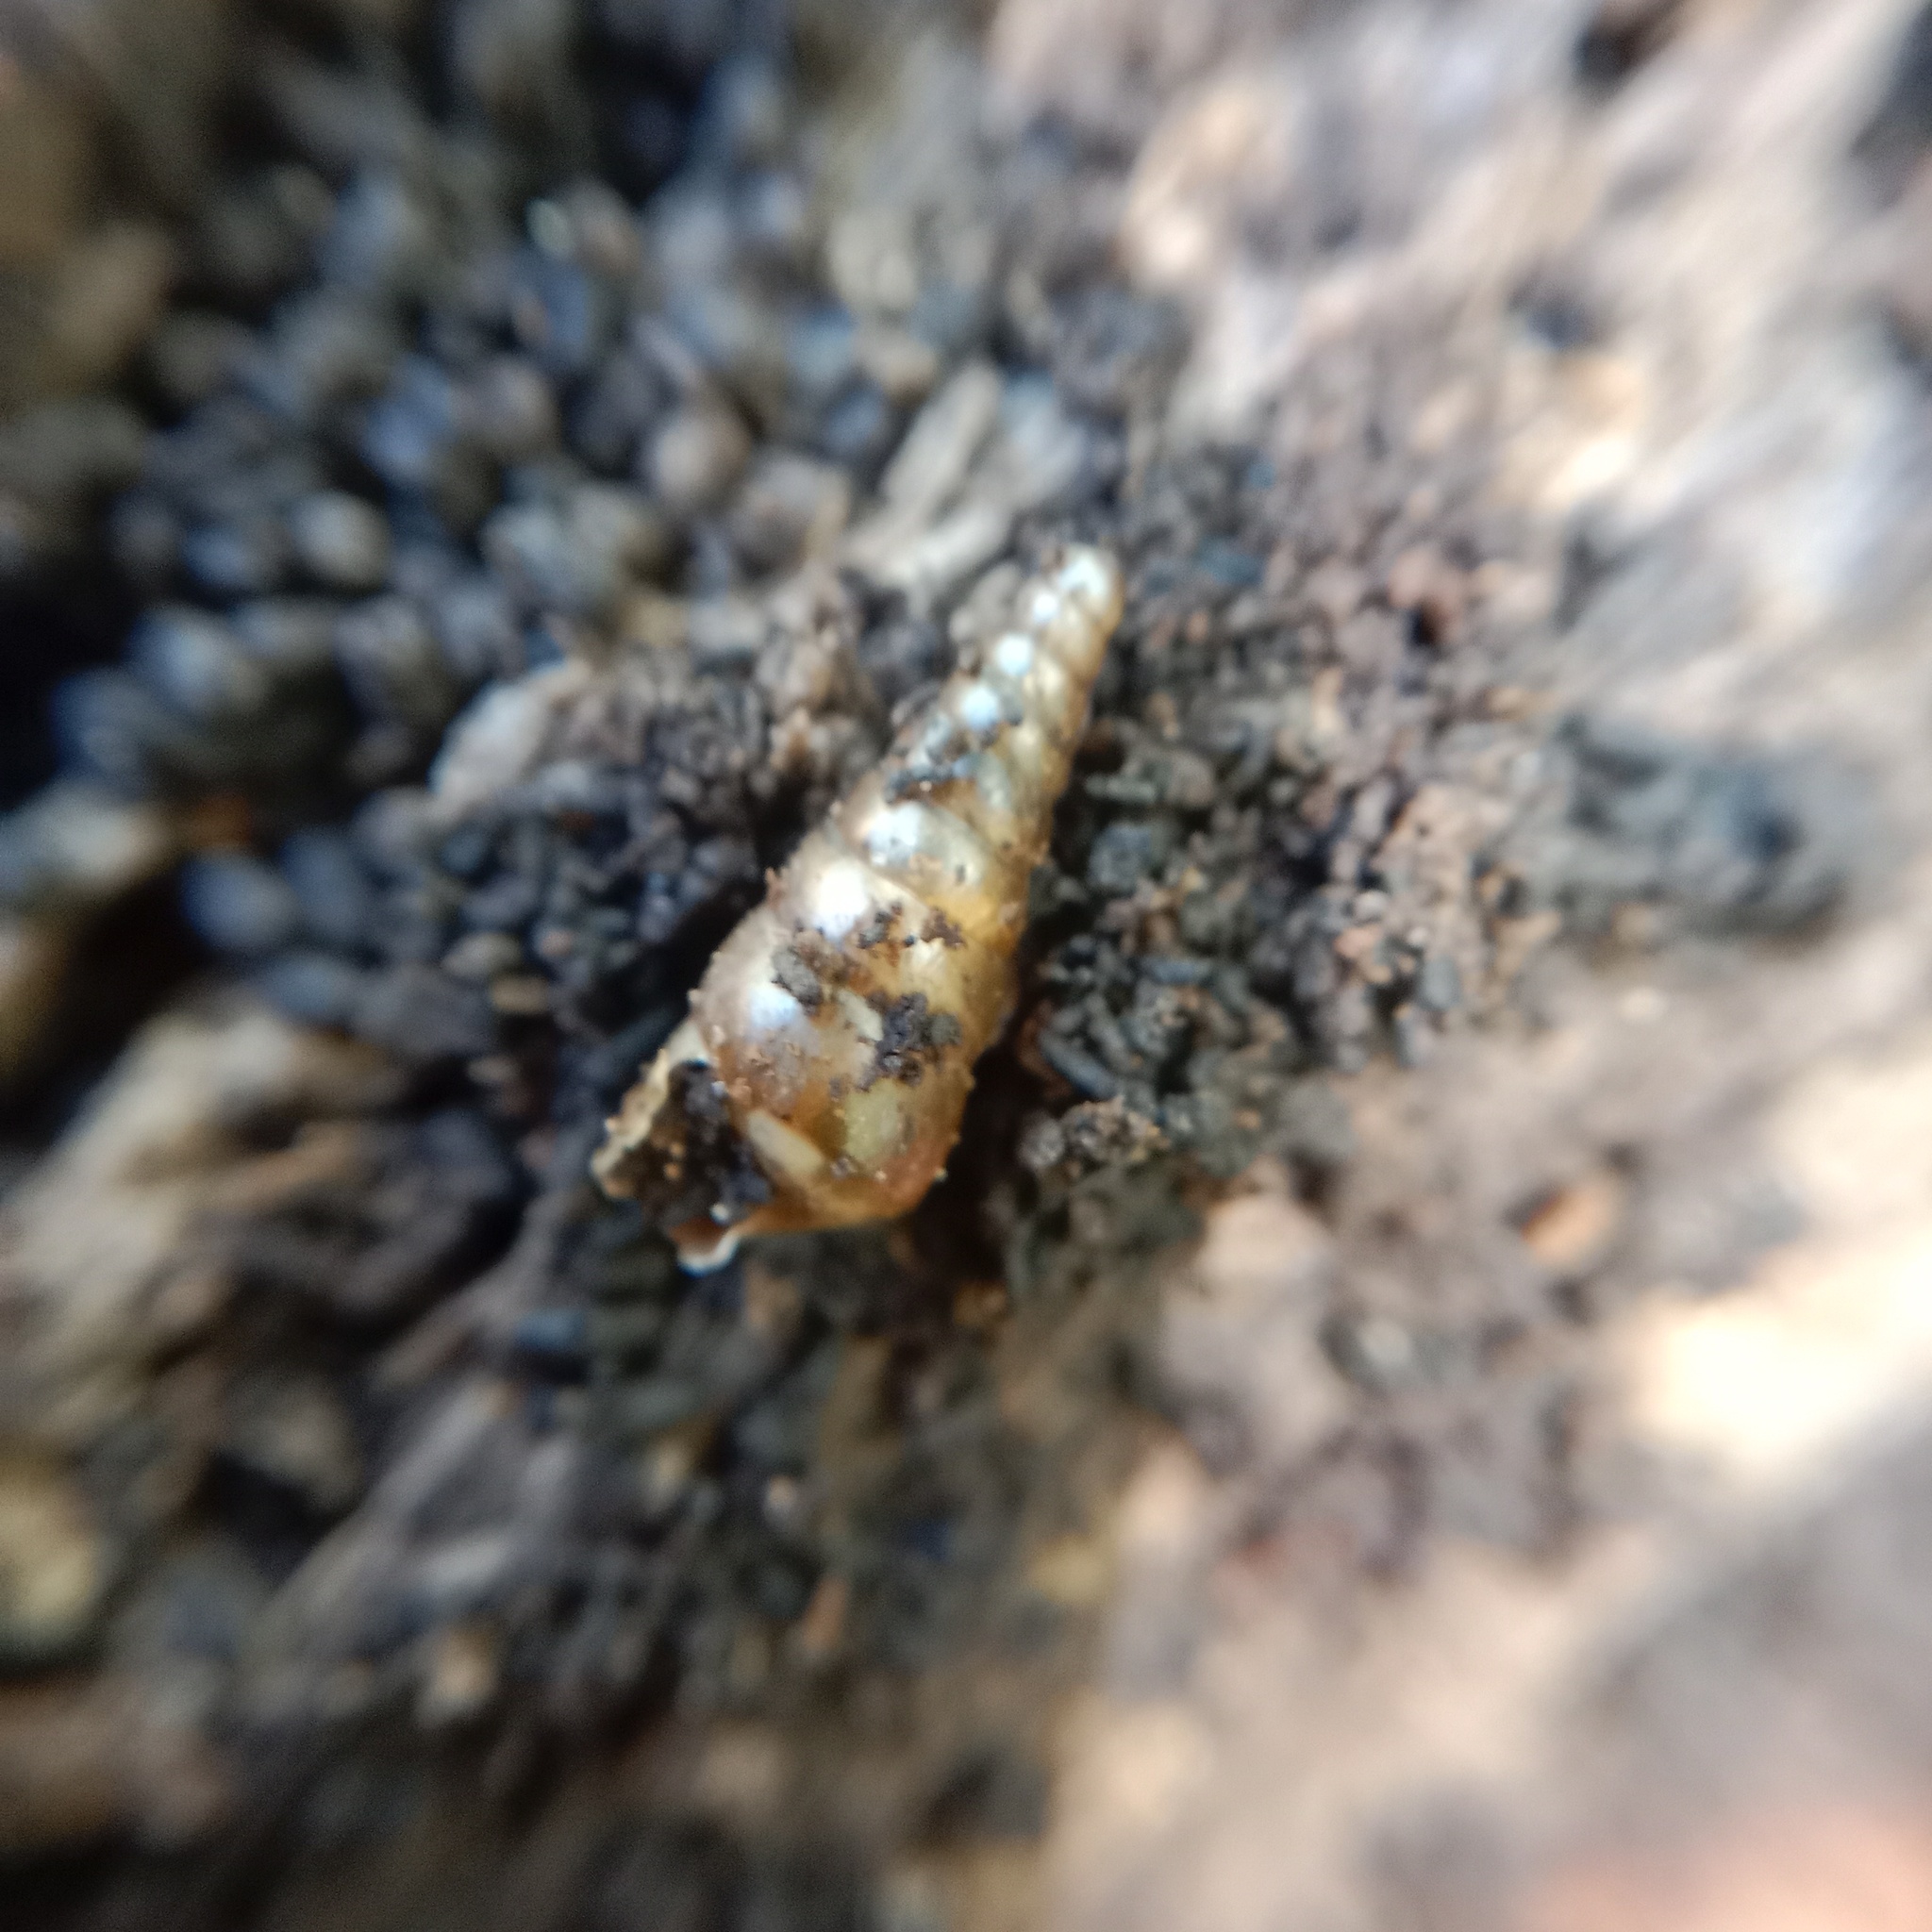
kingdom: Animalia
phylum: Mollusca
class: Gastropoda
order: Stylommatophora
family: Clausiliidae
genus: Cochlodina
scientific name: Cochlodina laminata
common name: Plaited door snail
